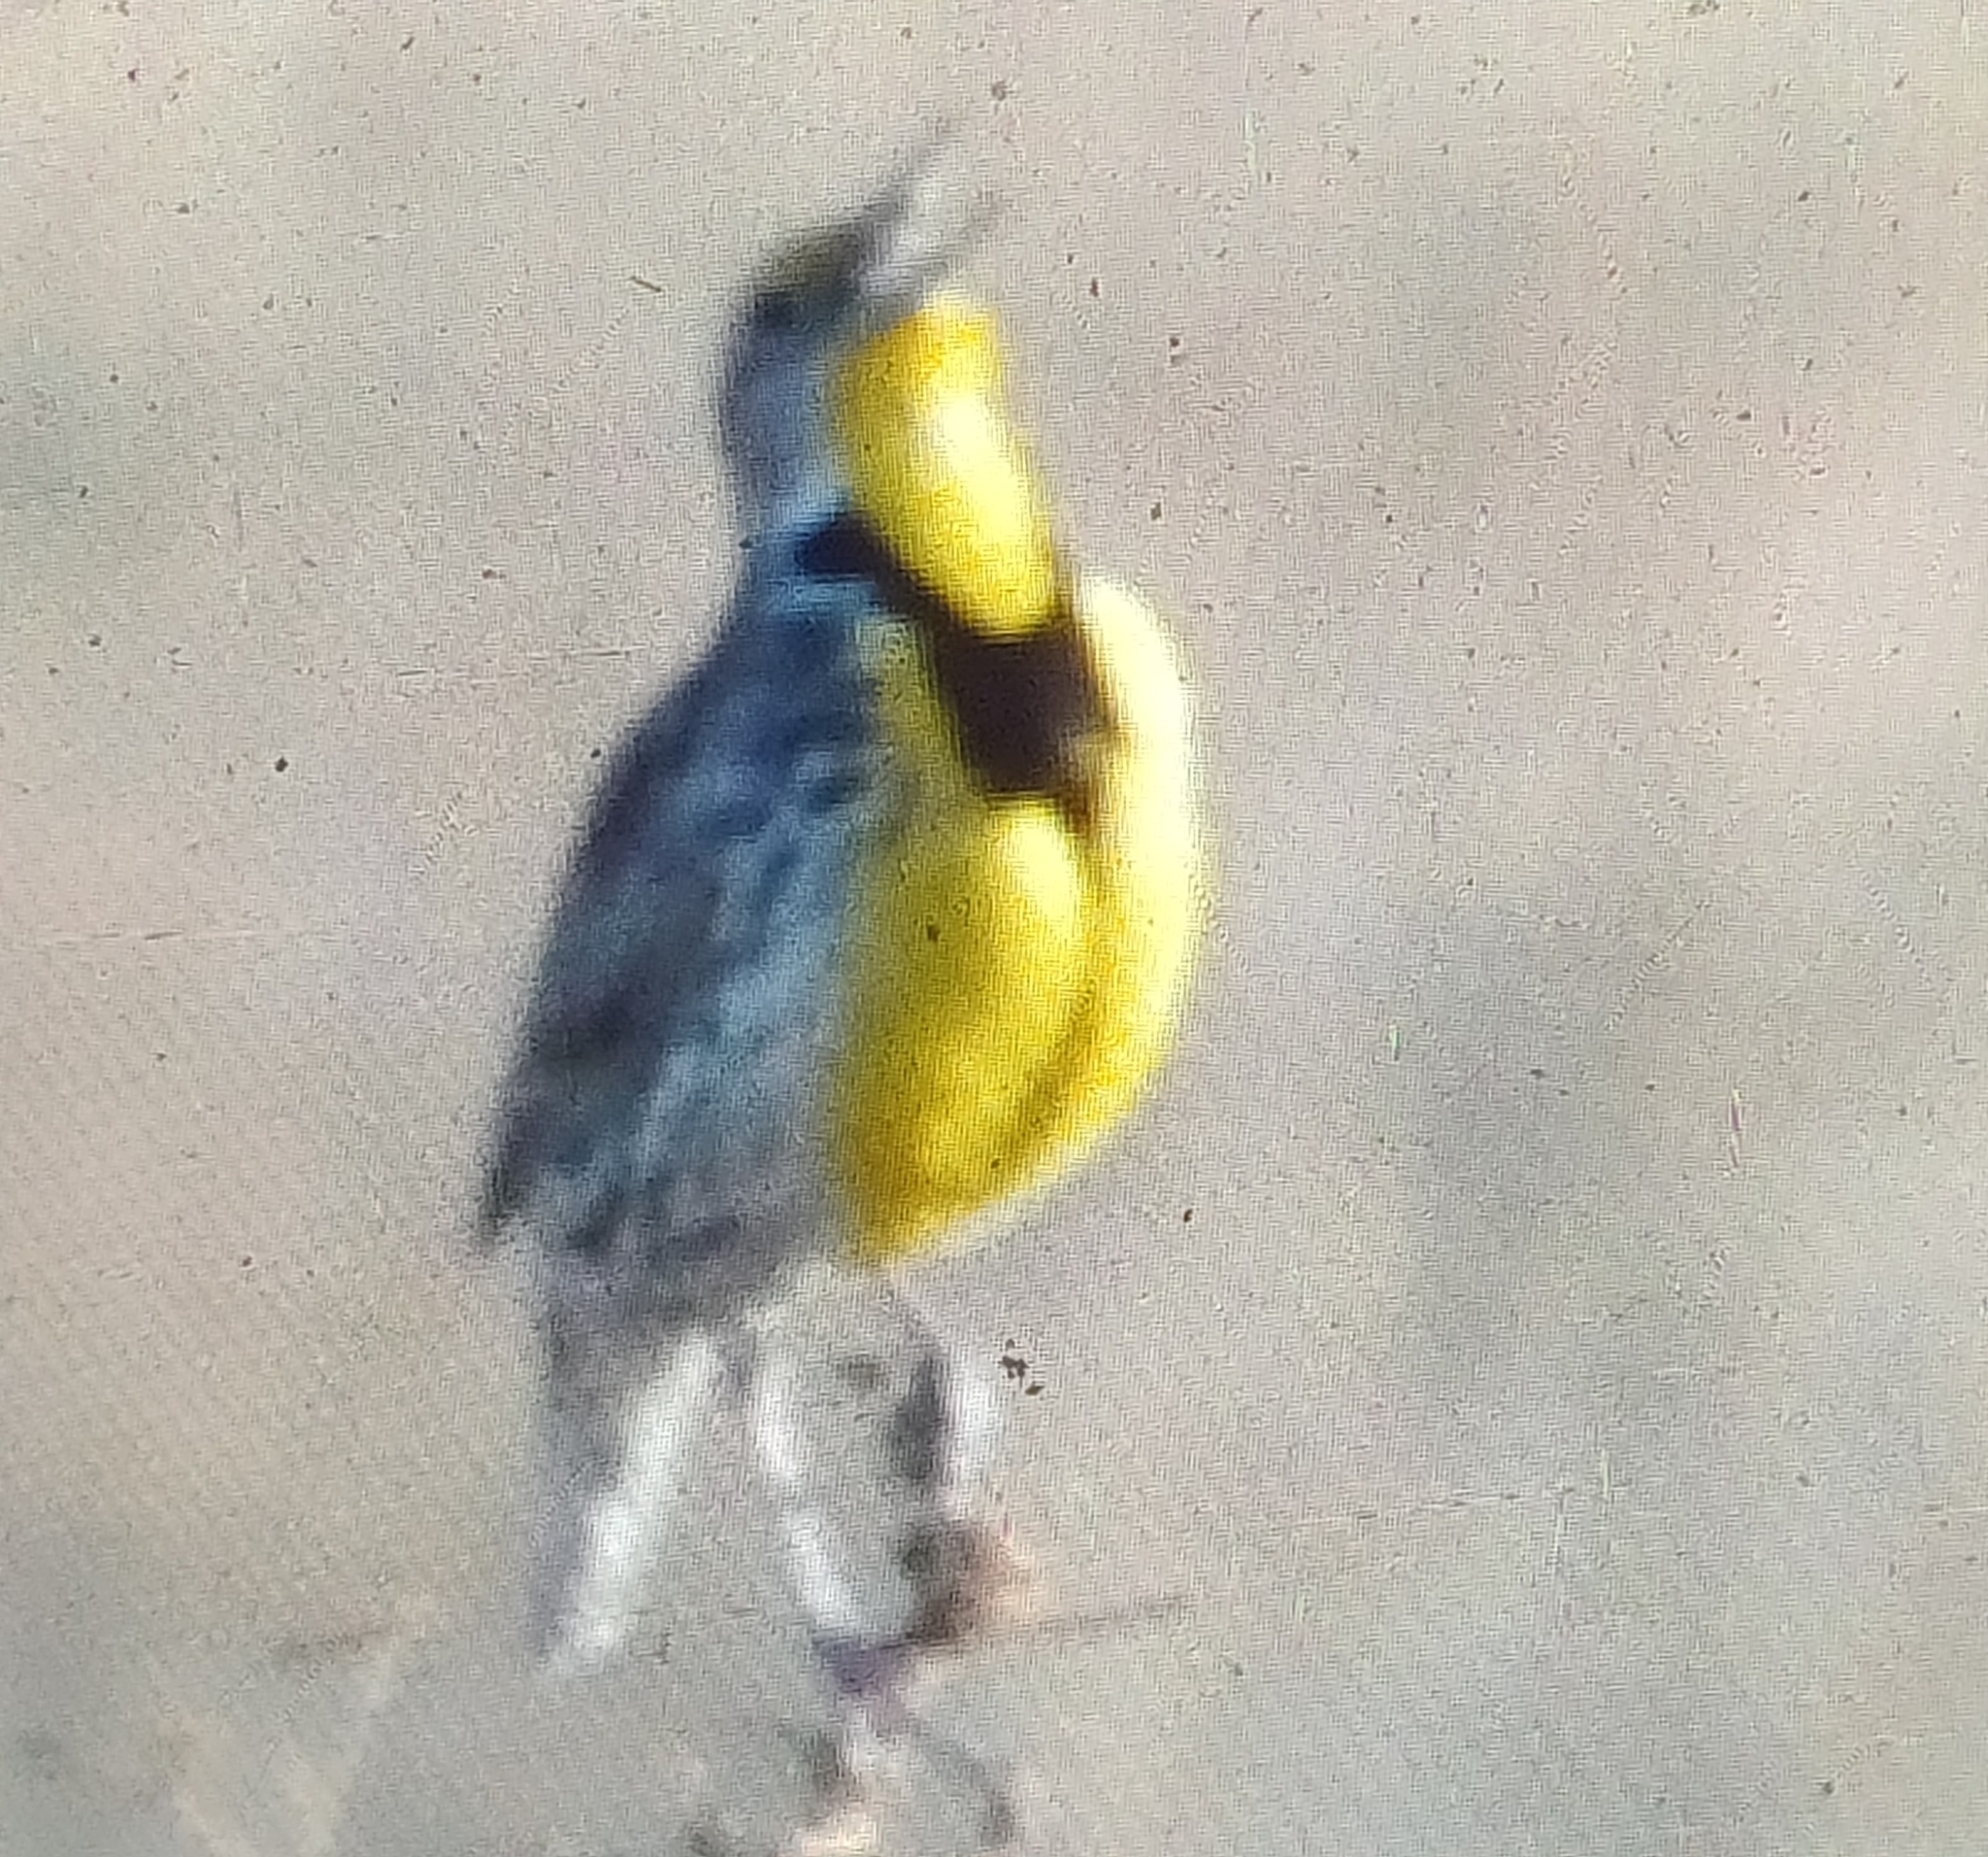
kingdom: Animalia
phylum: Chordata
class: Aves
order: Passeriformes
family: Icteridae
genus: Sturnella
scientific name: Sturnella neglecta
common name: Western meadowlark
